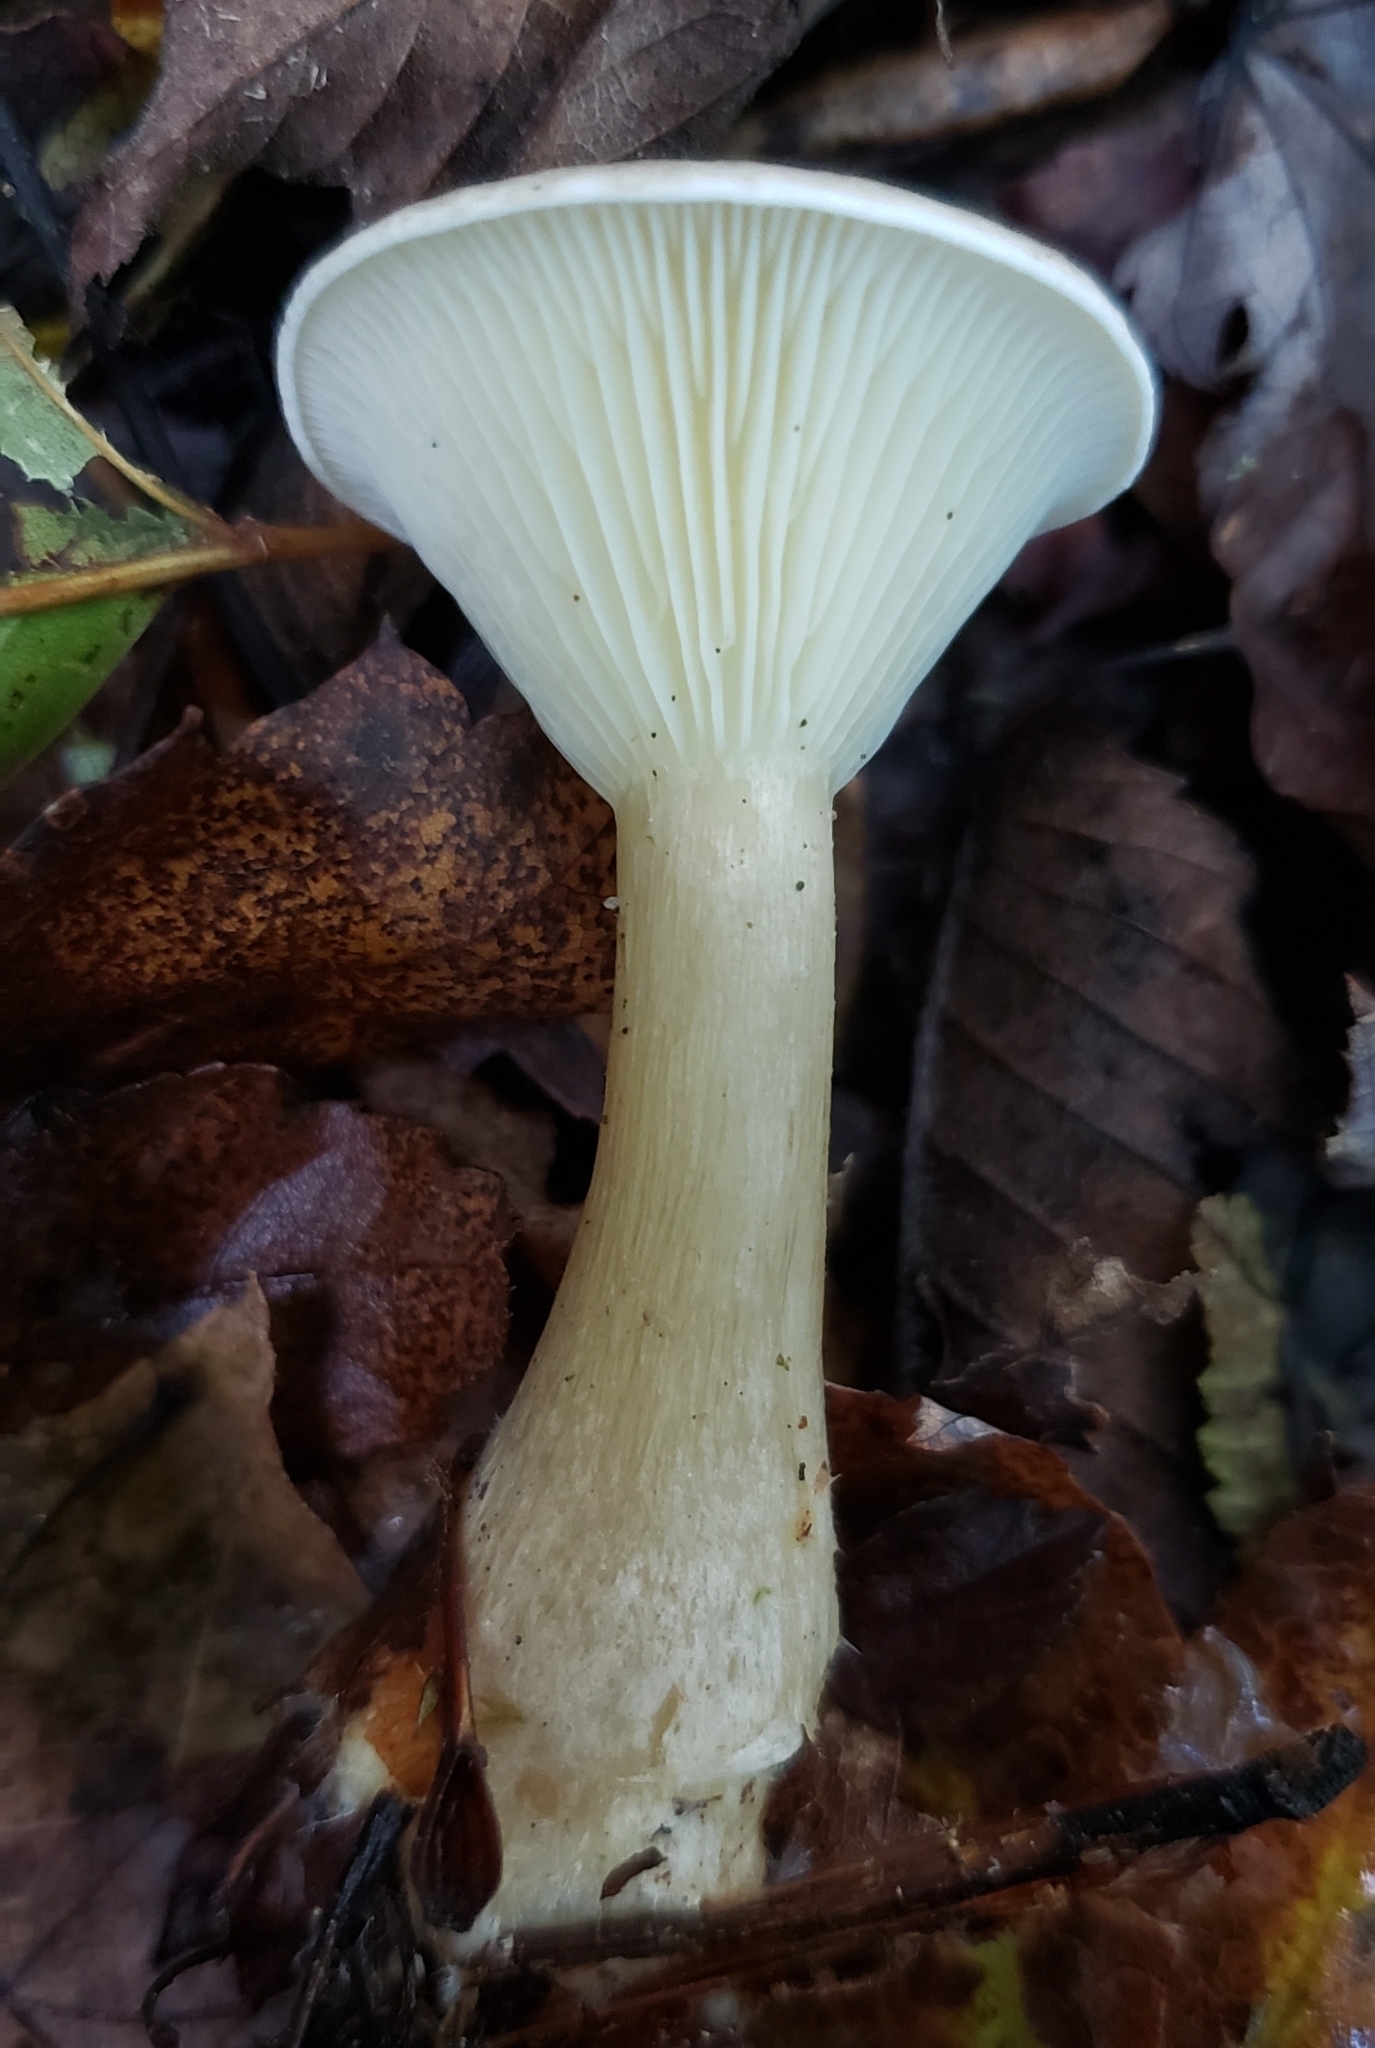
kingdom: Fungi
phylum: Basidiomycota
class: Agaricomycetes
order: Agaricales
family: Hygrophoraceae
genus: Ampulloclitocybe
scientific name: Ampulloclitocybe clavipes
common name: Club foot
